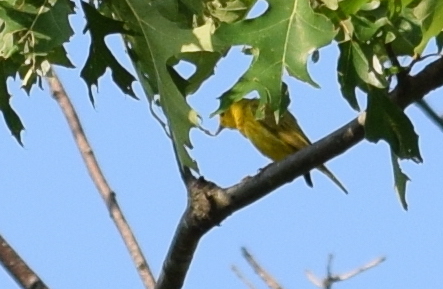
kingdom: Animalia
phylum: Chordata
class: Aves
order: Passeriformes
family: Parulidae
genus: Setophaga
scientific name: Setophaga petechia
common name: Yellow warbler
